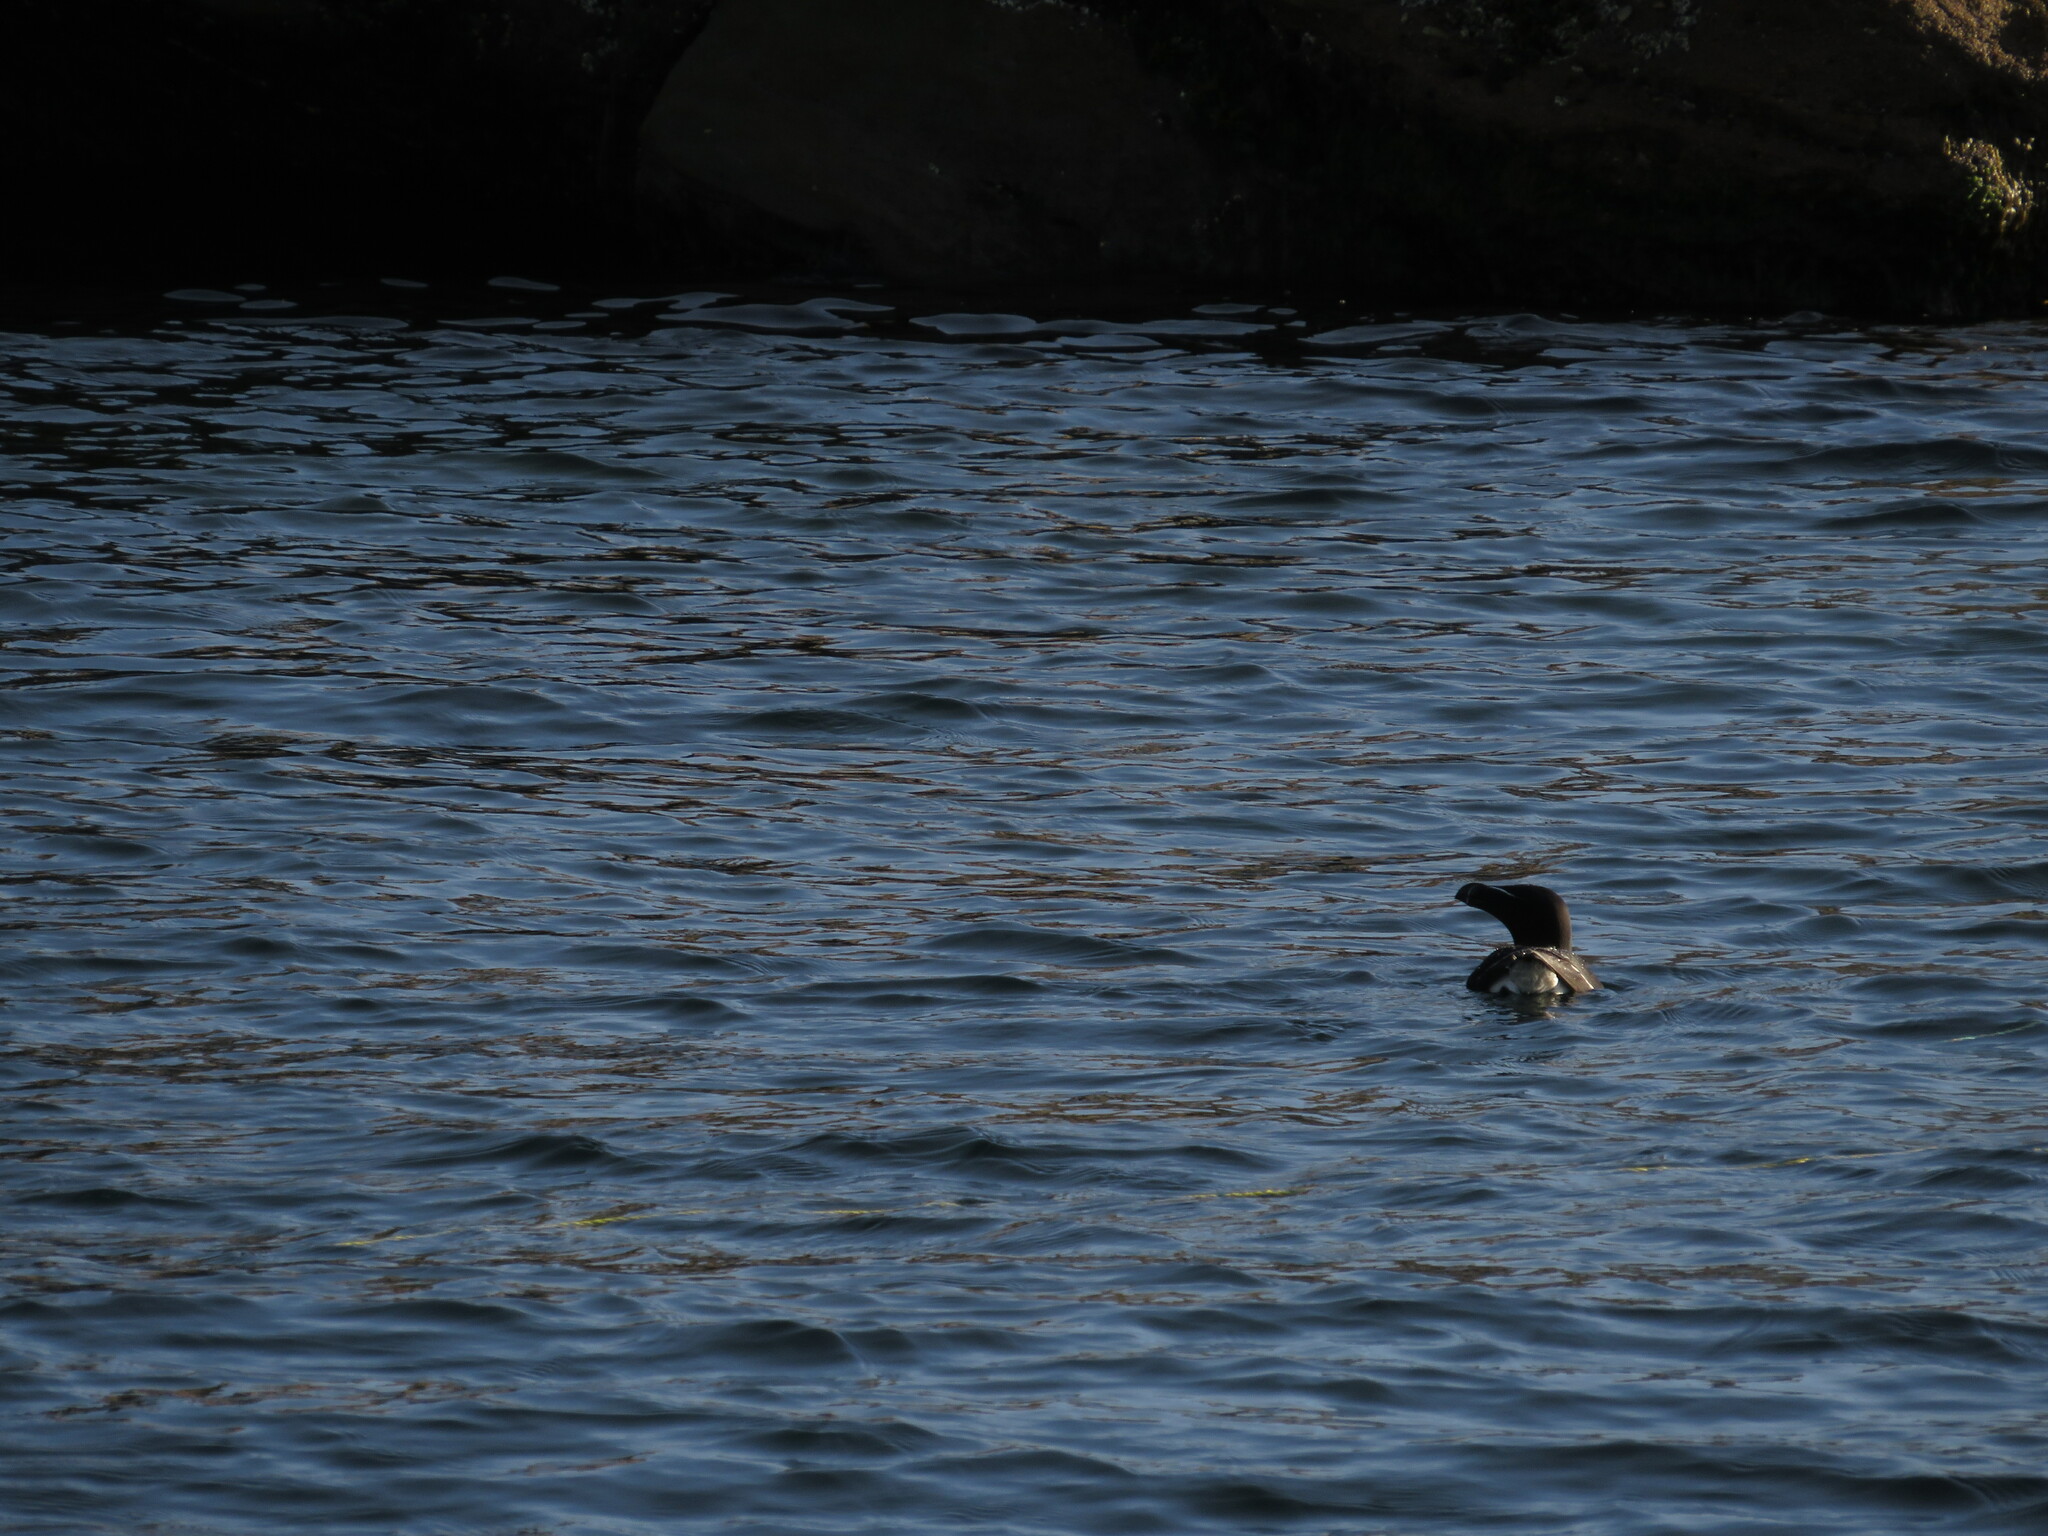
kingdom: Animalia
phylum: Chordata
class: Aves
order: Charadriiformes
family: Alcidae
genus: Alca
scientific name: Alca torda
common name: Razorbill
